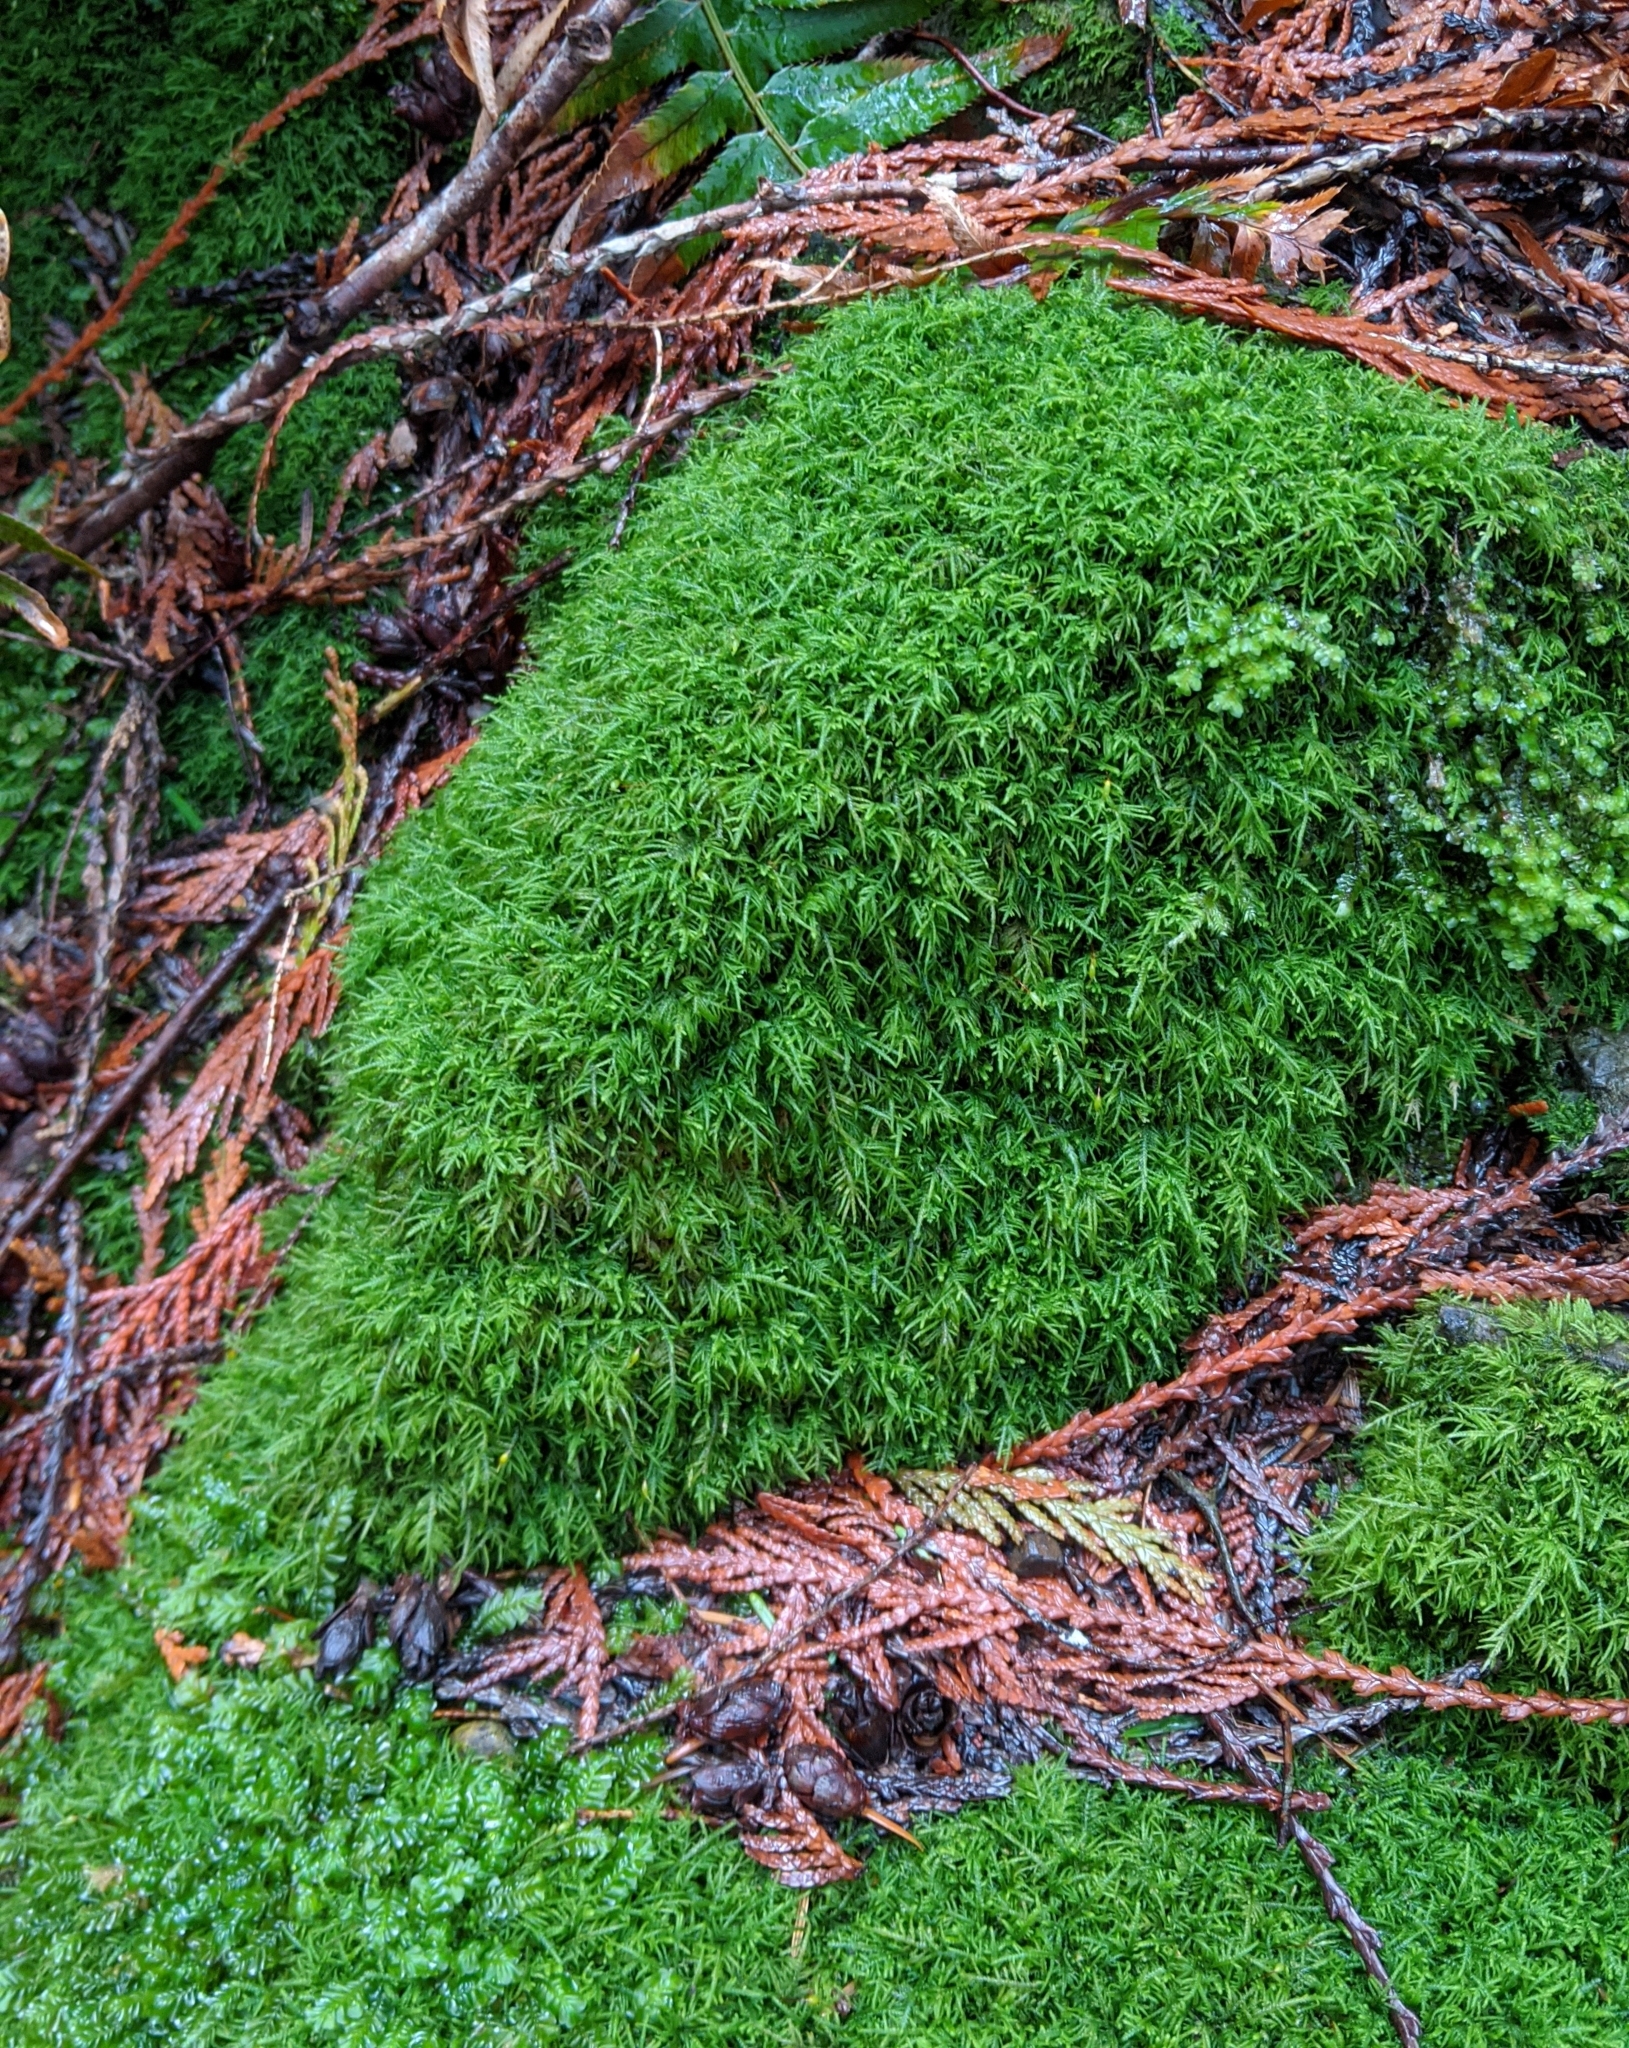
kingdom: Plantae
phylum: Bryophyta
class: Bryopsida
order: Hypnales
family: Lembophyllaceae
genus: Heterocladium
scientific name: Heterocladium macounii
